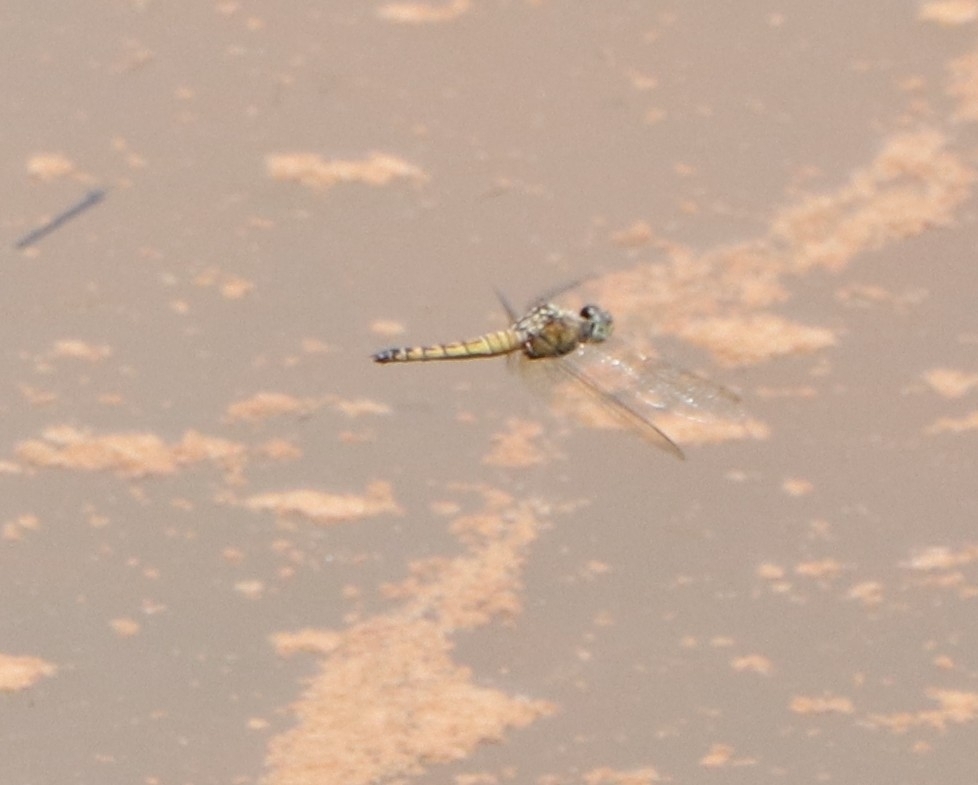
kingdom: Animalia
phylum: Arthropoda
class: Insecta
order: Odonata
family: Libellulidae
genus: Brachydiplax
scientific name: Brachydiplax chalybea
